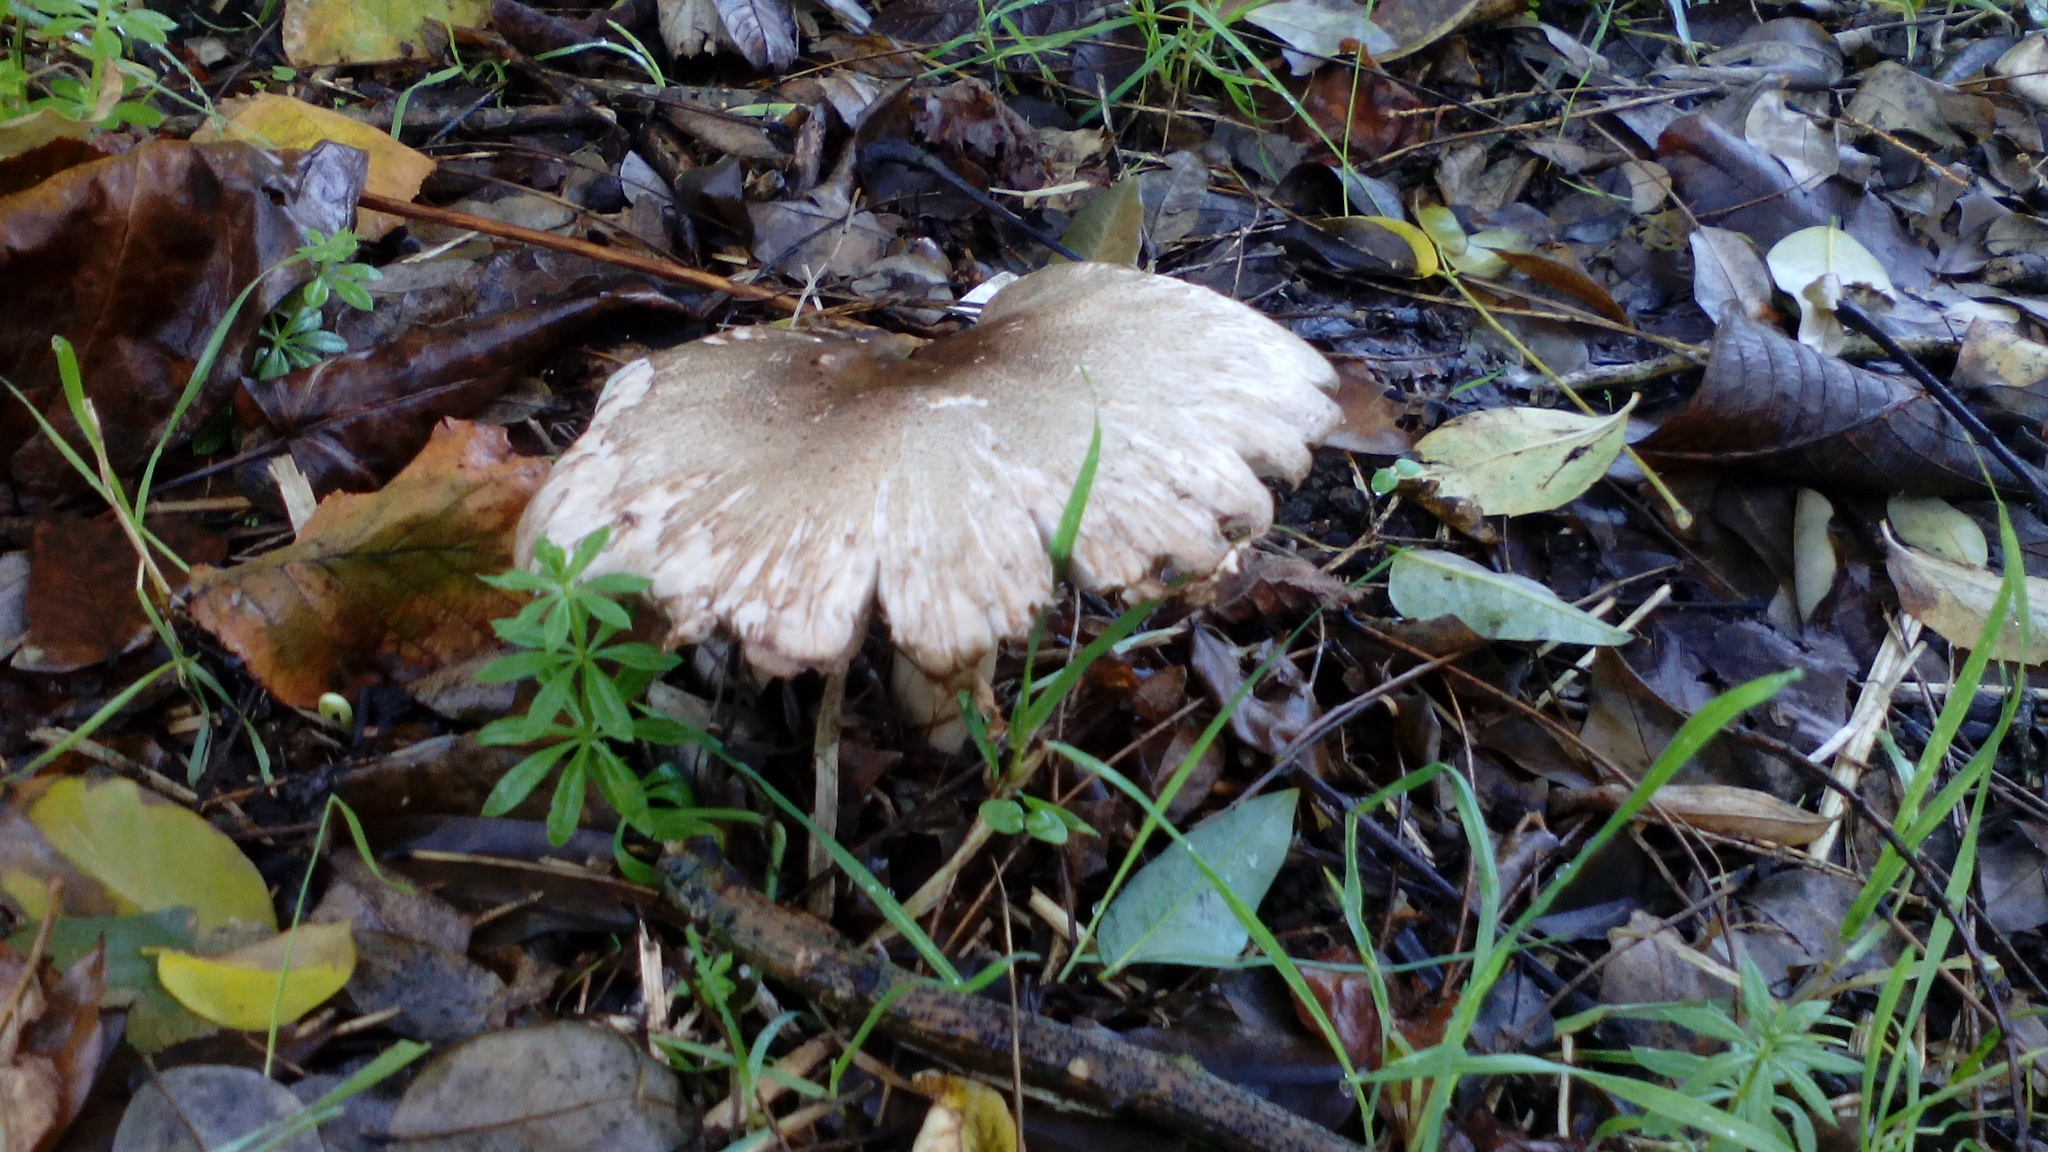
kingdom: Fungi
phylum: Basidiomycota
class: Agaricomycetes
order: Agaricales
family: Agaricaceae
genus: Agaricus
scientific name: Agaricus moelleri
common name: Inky mushroom
